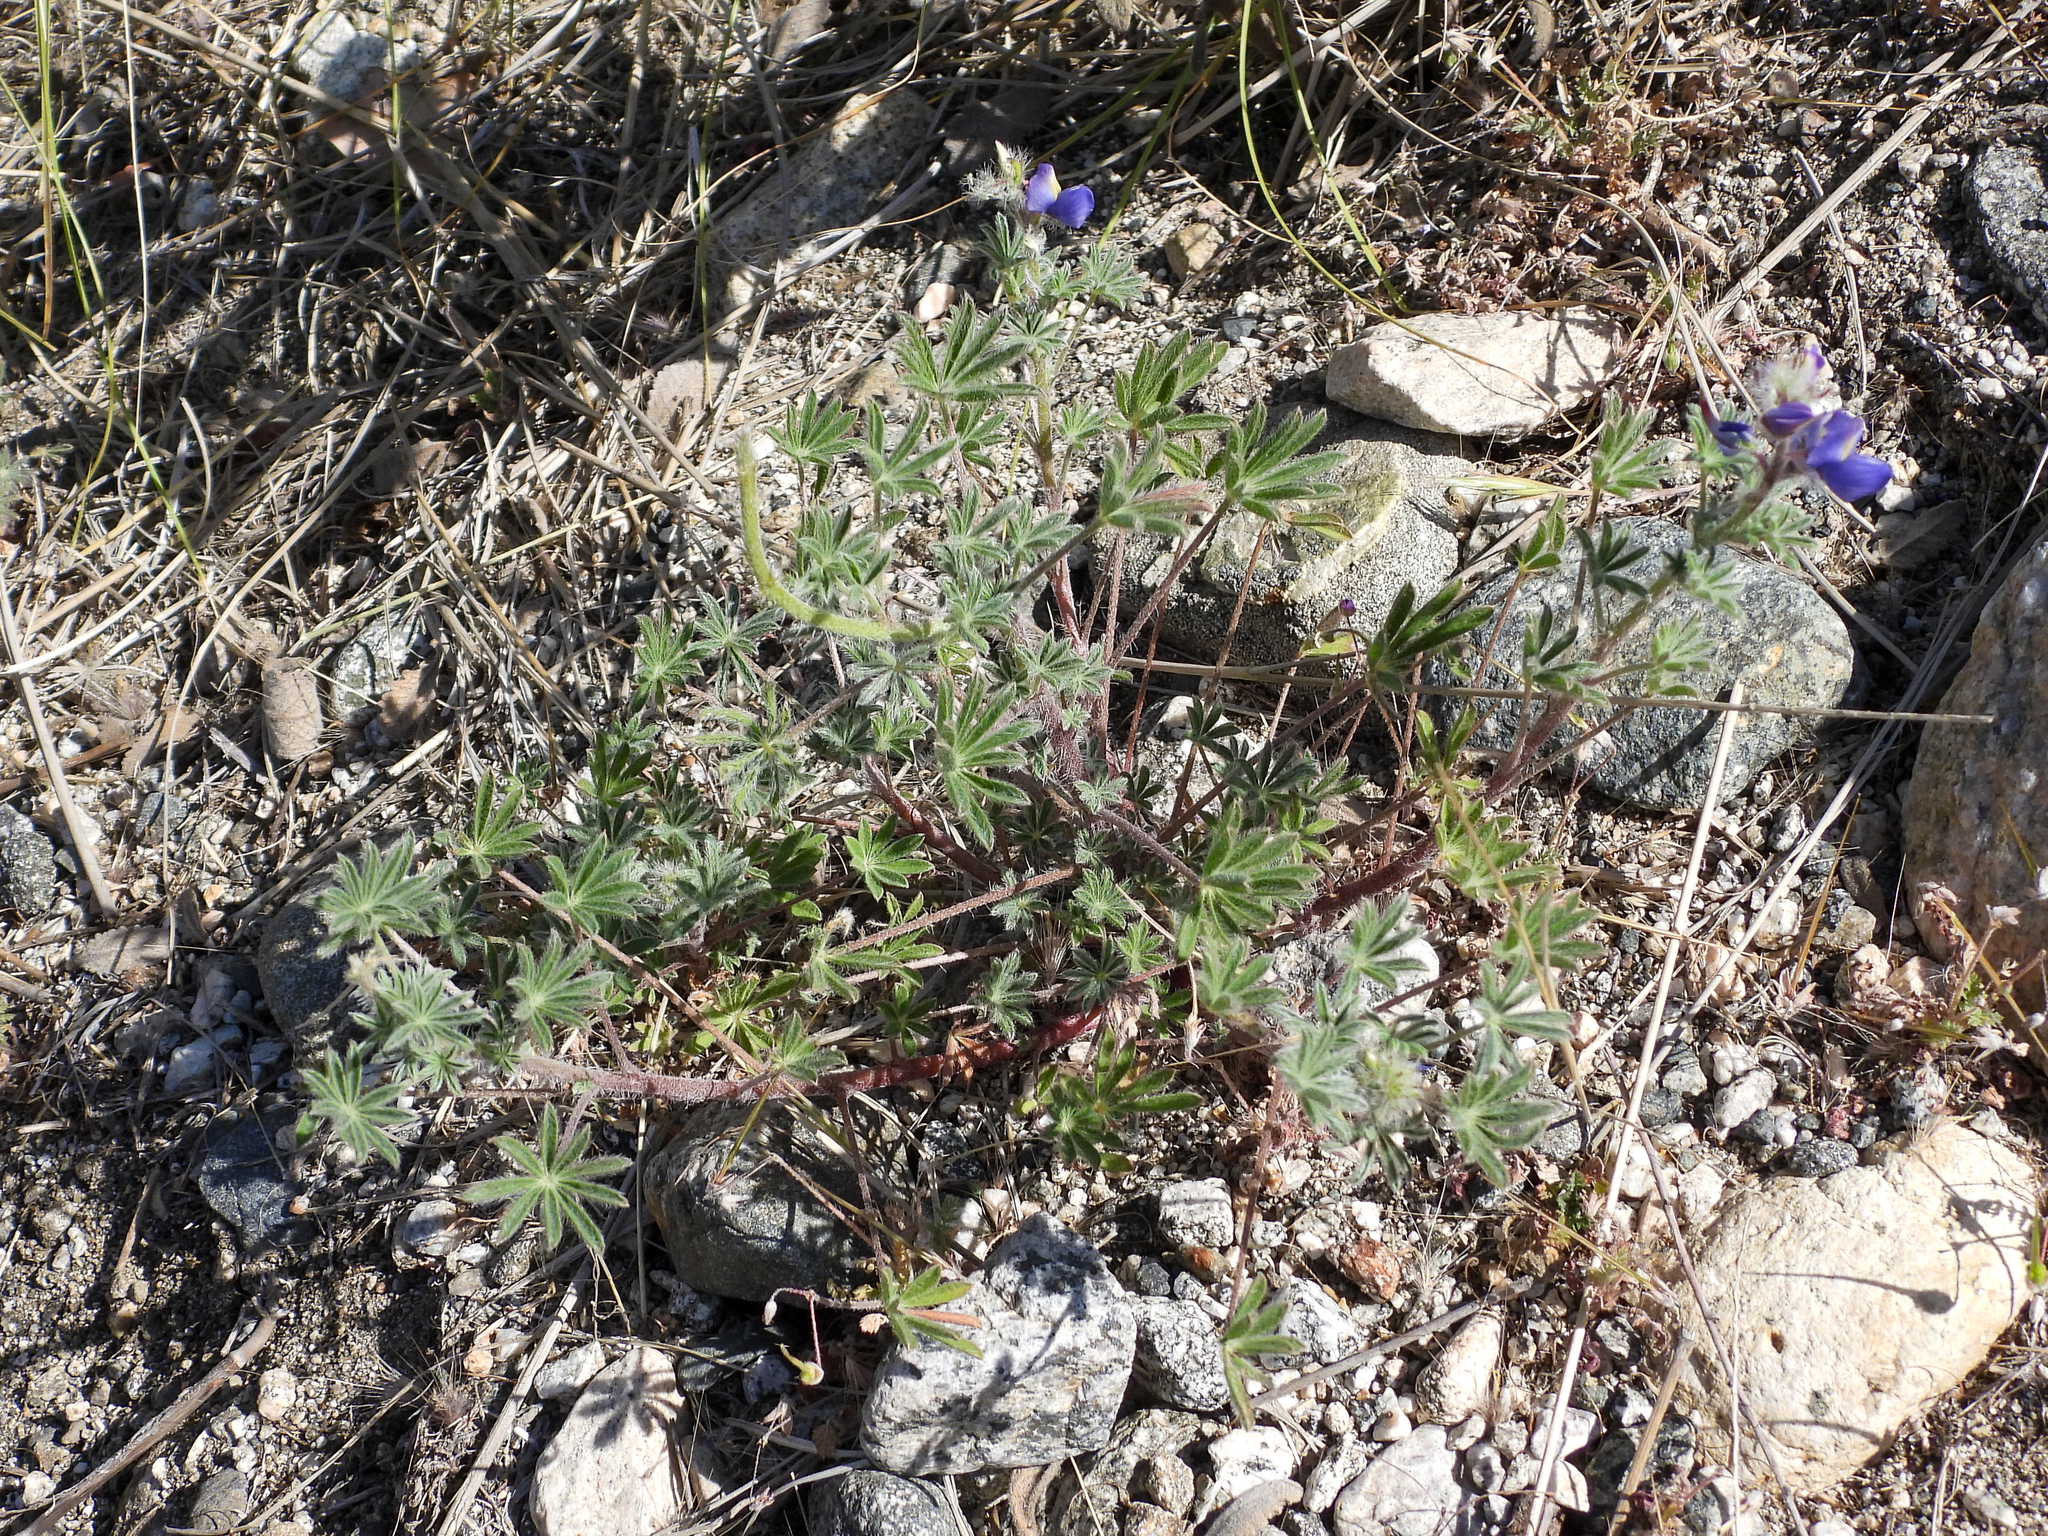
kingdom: Plantae
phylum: Tracheophyta
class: Magnoliopsida
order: Fabales
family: Fabaceae
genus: Lupinus
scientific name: Lupinus sparsiflorus
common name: Coulter's lupine
